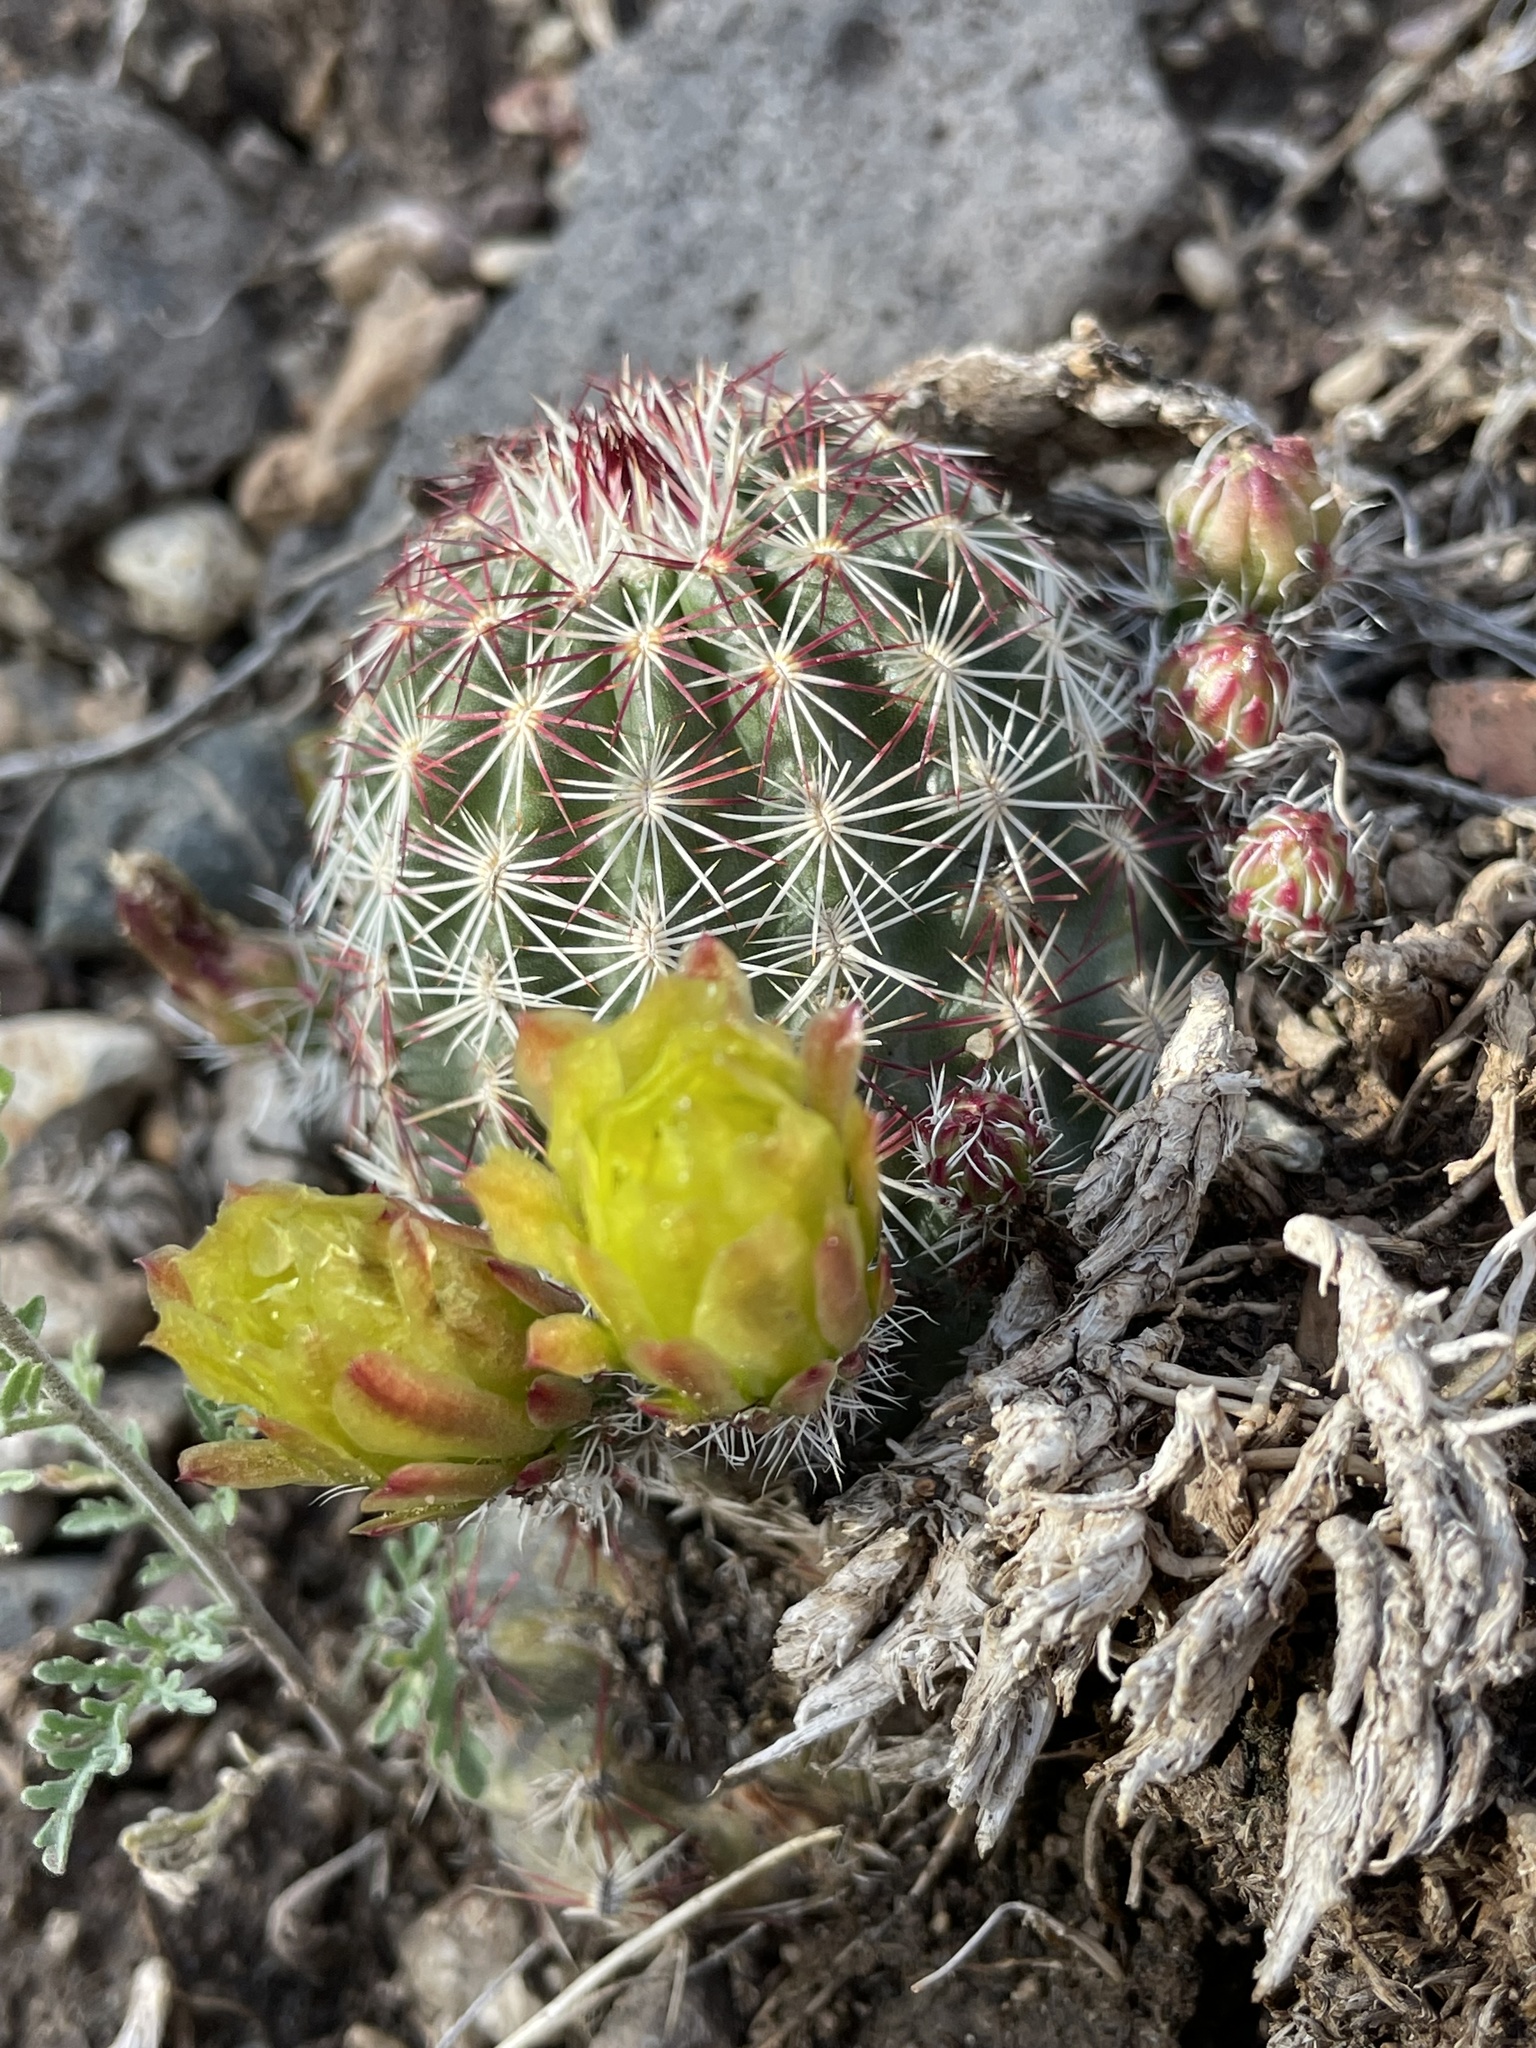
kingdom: Plantae
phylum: Tracheophyta
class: Magnoliopsida
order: Caryophyllales
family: Cactaceae
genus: Echinocereus
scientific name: Echinocereus viridiflorus
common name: Nylon hedgehog cactus
